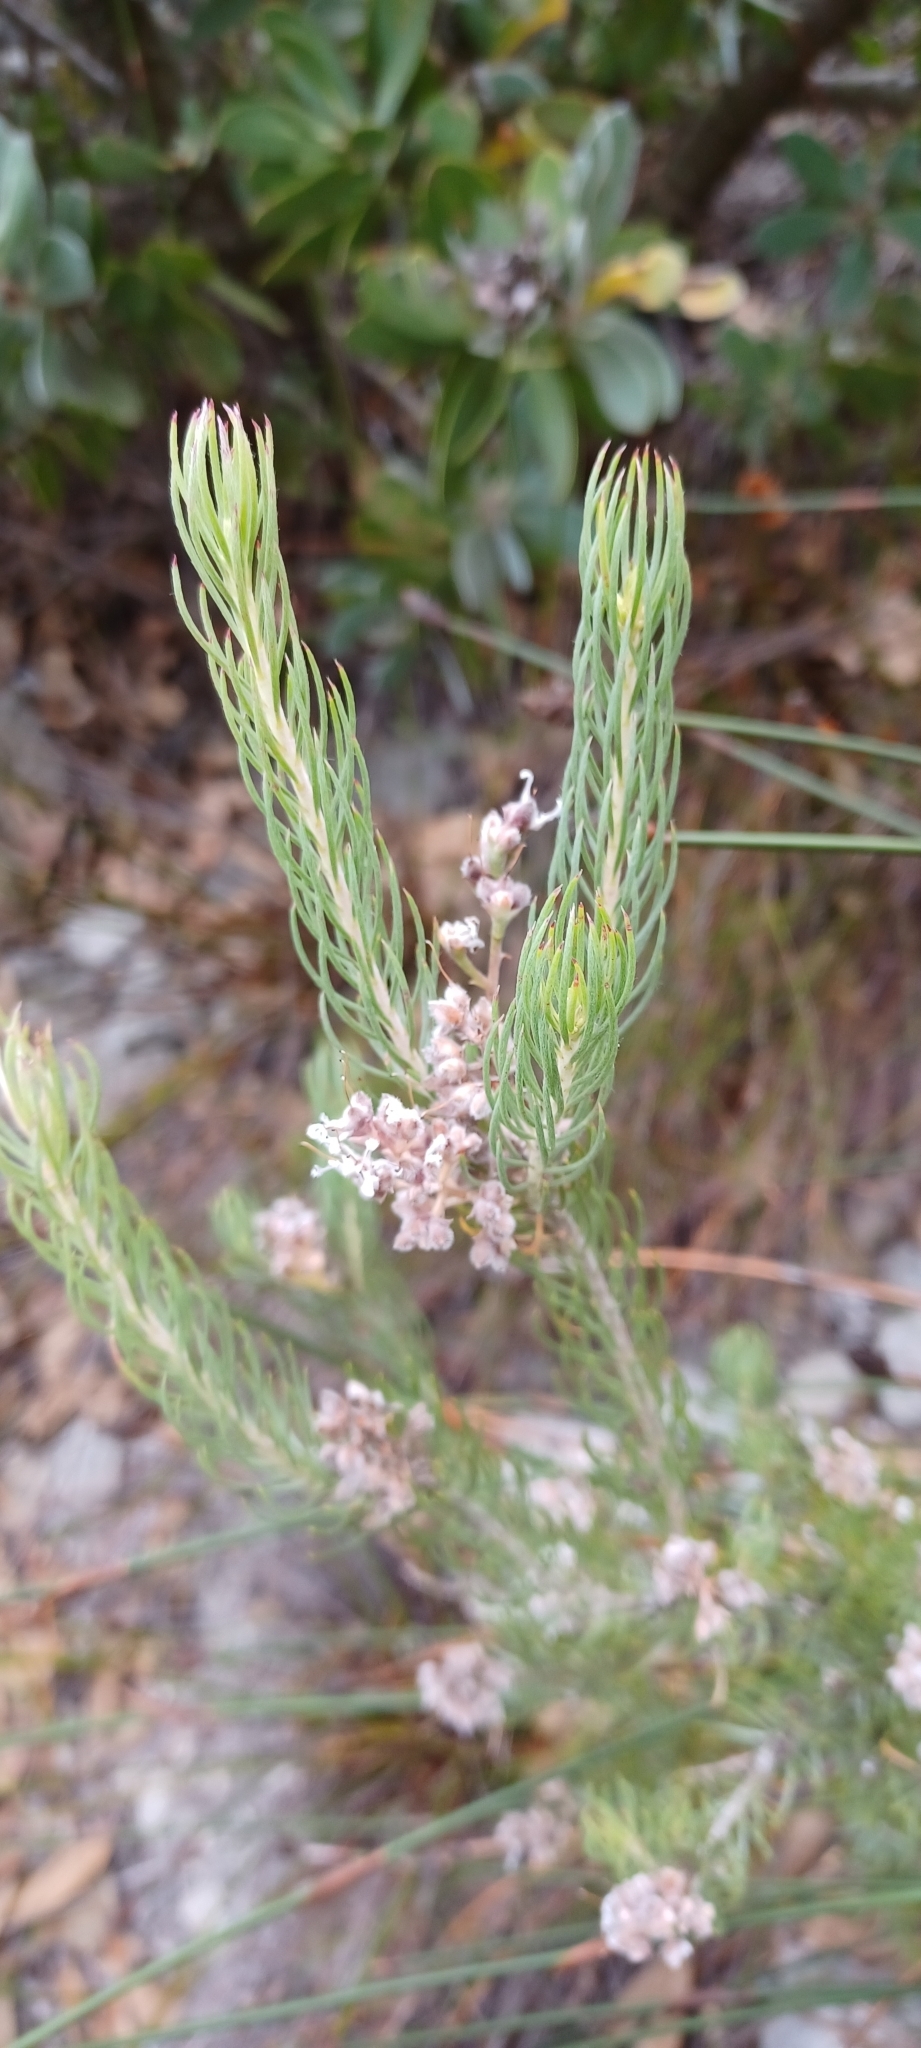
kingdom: Plantae
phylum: Tracheophyta
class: Magnoliopsida
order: Proteales
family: Proteaceae
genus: Spatalla
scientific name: Spatalla incurva
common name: Swan-head spoon
